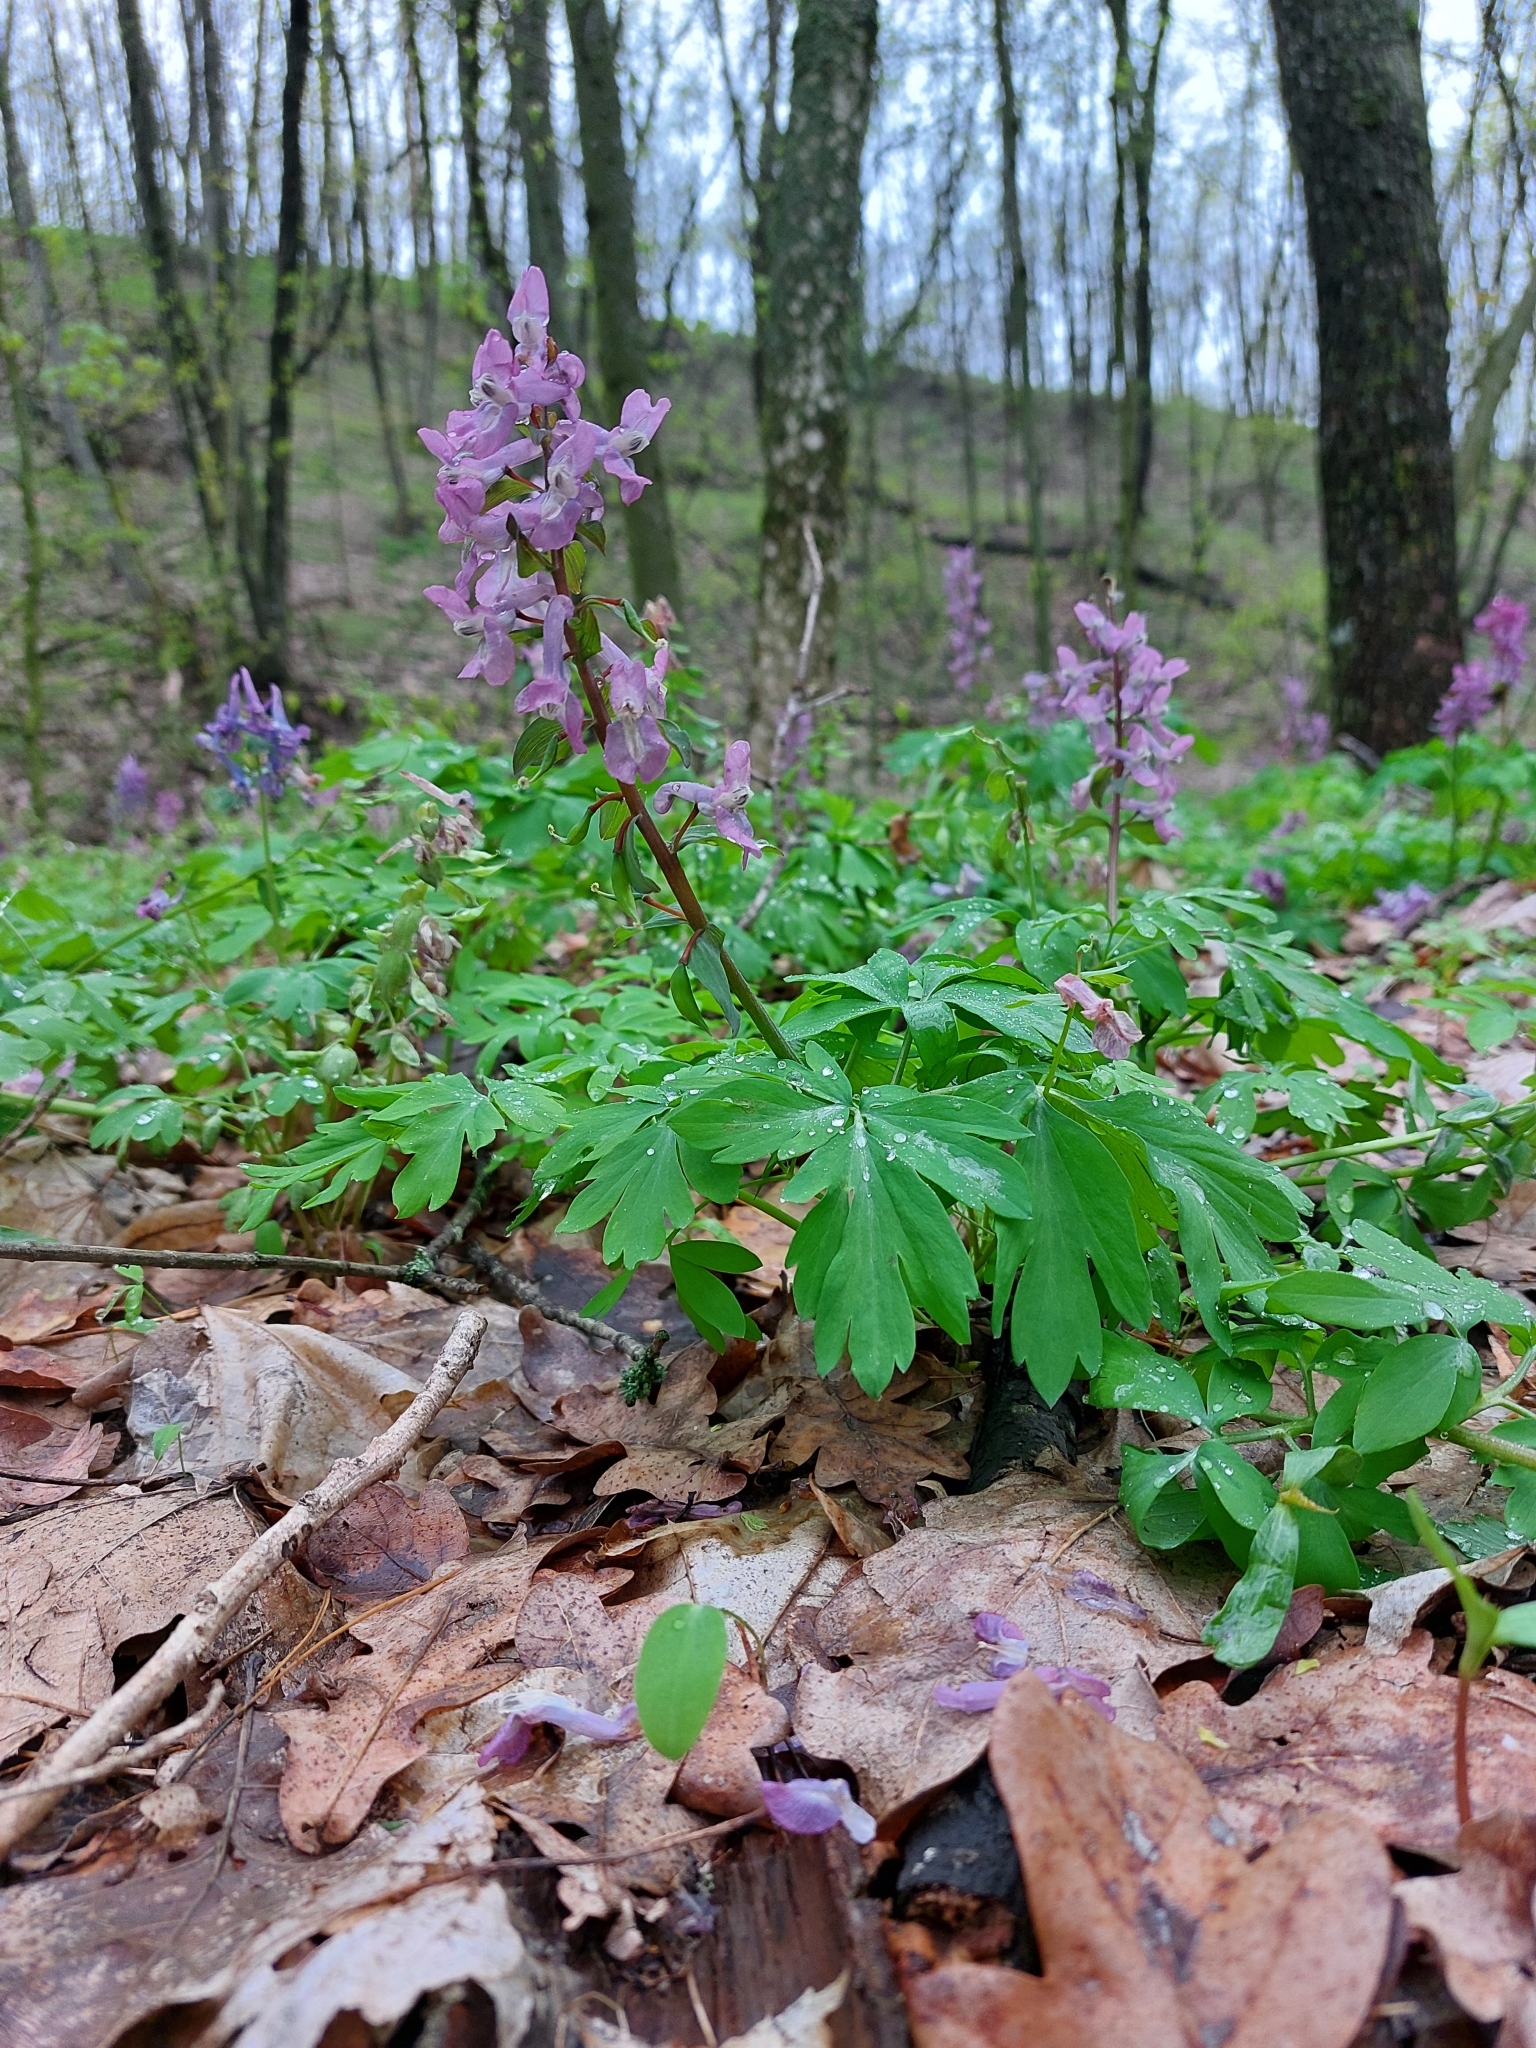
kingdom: Plantae
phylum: Tracheophyta
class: Magnoliopsida
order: Ranunculales
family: Papaveraceae
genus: Corydalis
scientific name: Corydalis cava
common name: Hollowroot
